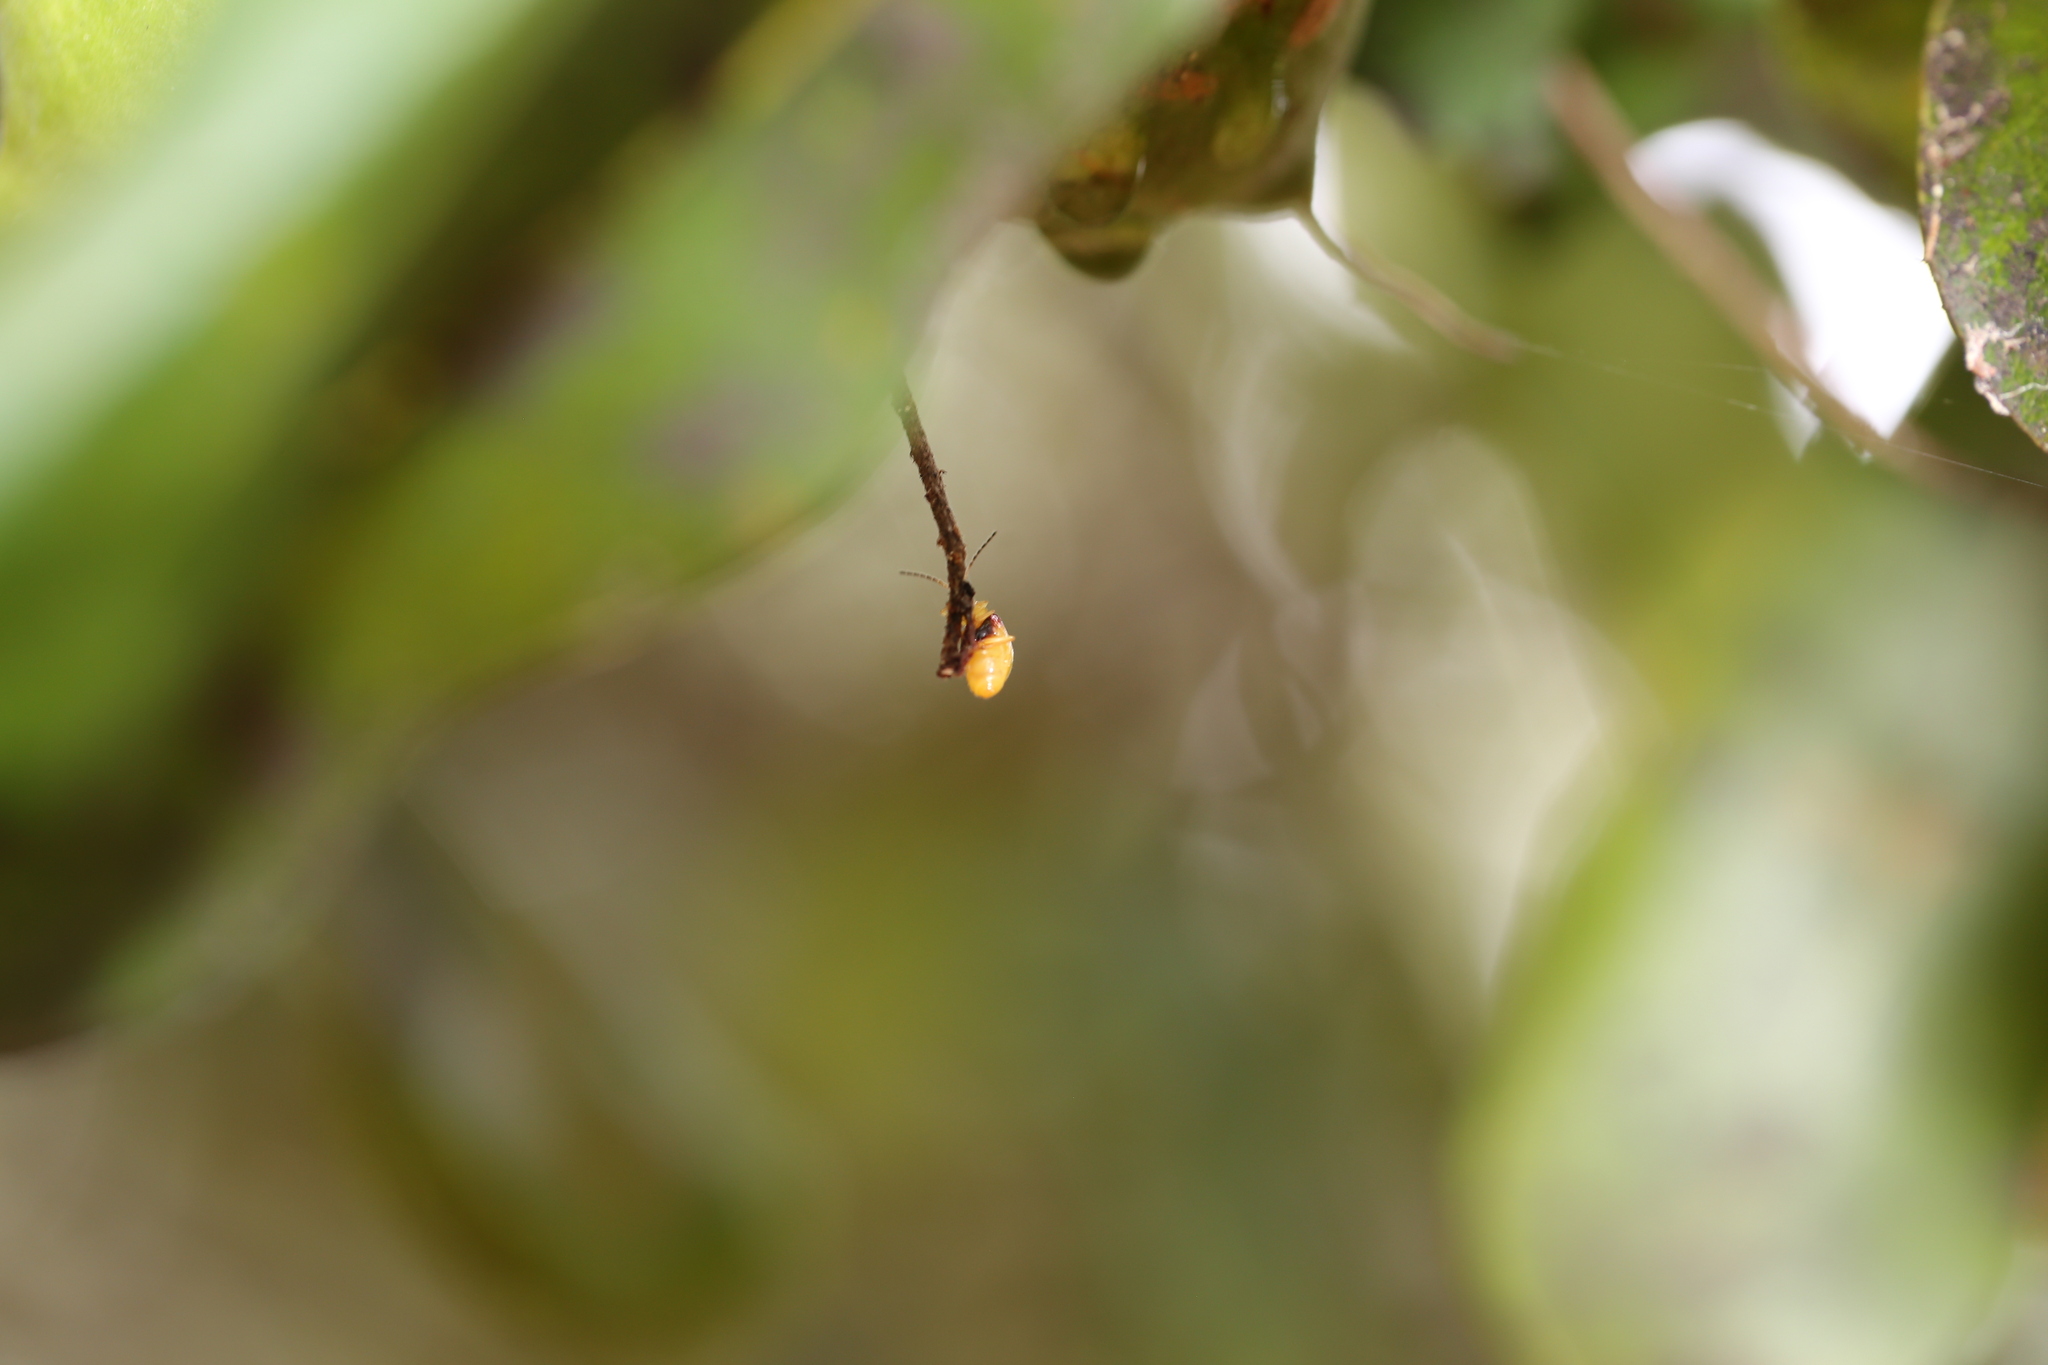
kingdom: Animalia
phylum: Arthropoda
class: Insecta
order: Coleoptera
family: Chrysomelidae
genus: Monolepta
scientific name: Monolepta
